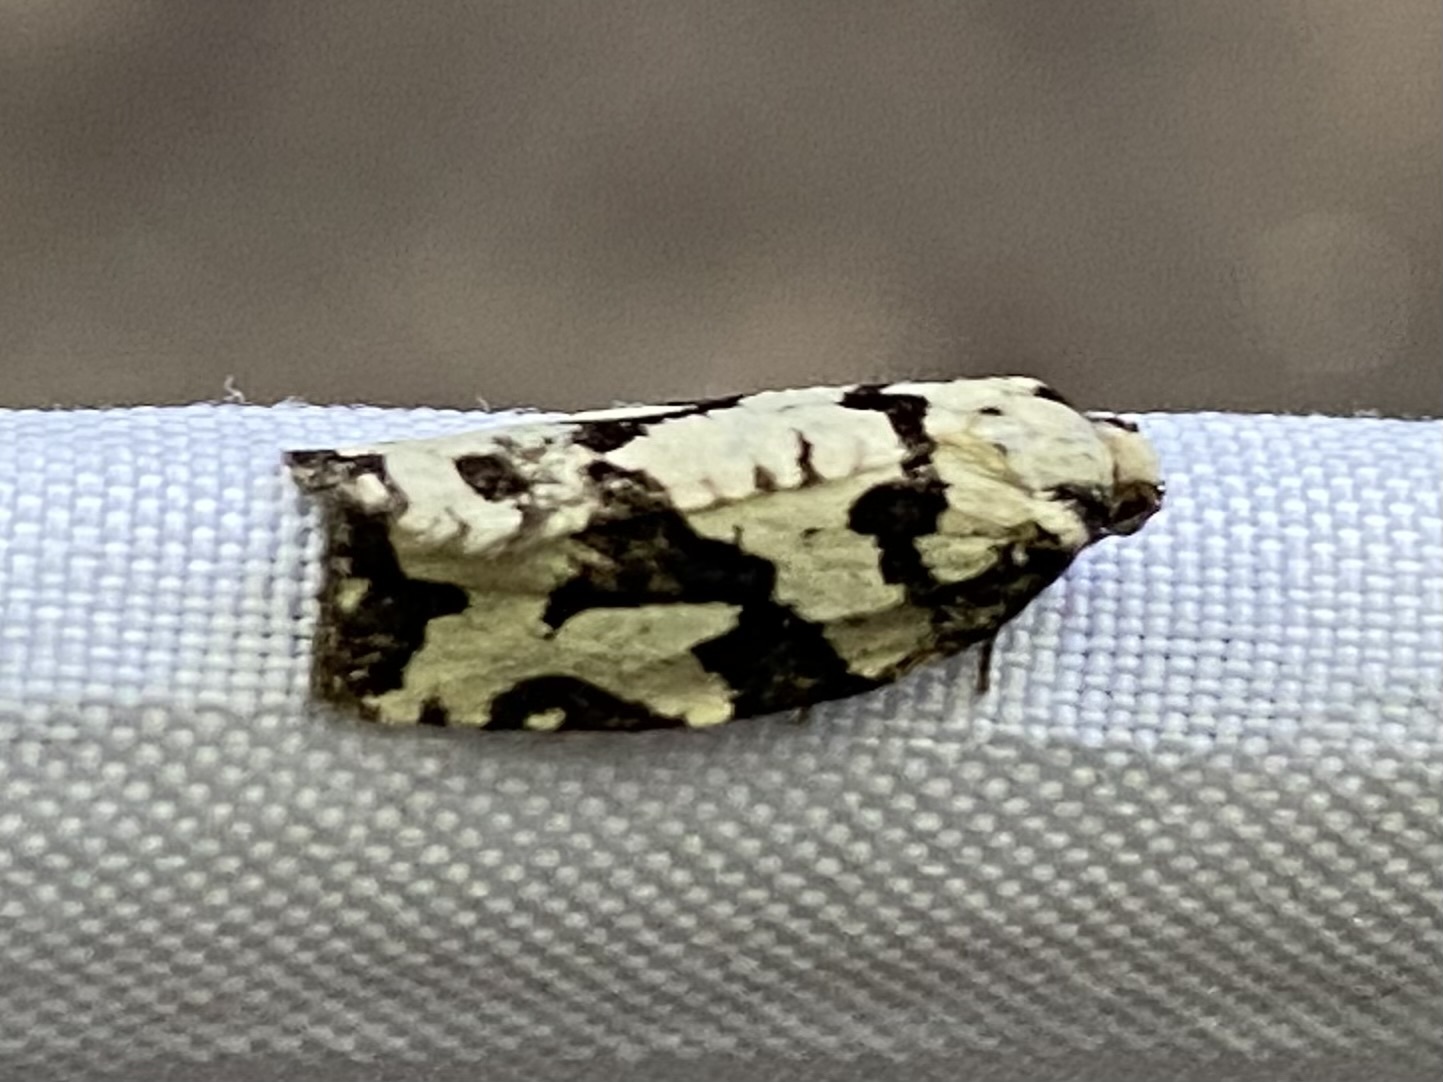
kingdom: Animalia
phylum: Arthropoda
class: Insecta
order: Lepidoptera
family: Tortricidae
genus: Archips
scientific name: Archips dissitana
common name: Boldly-marked archips moth
